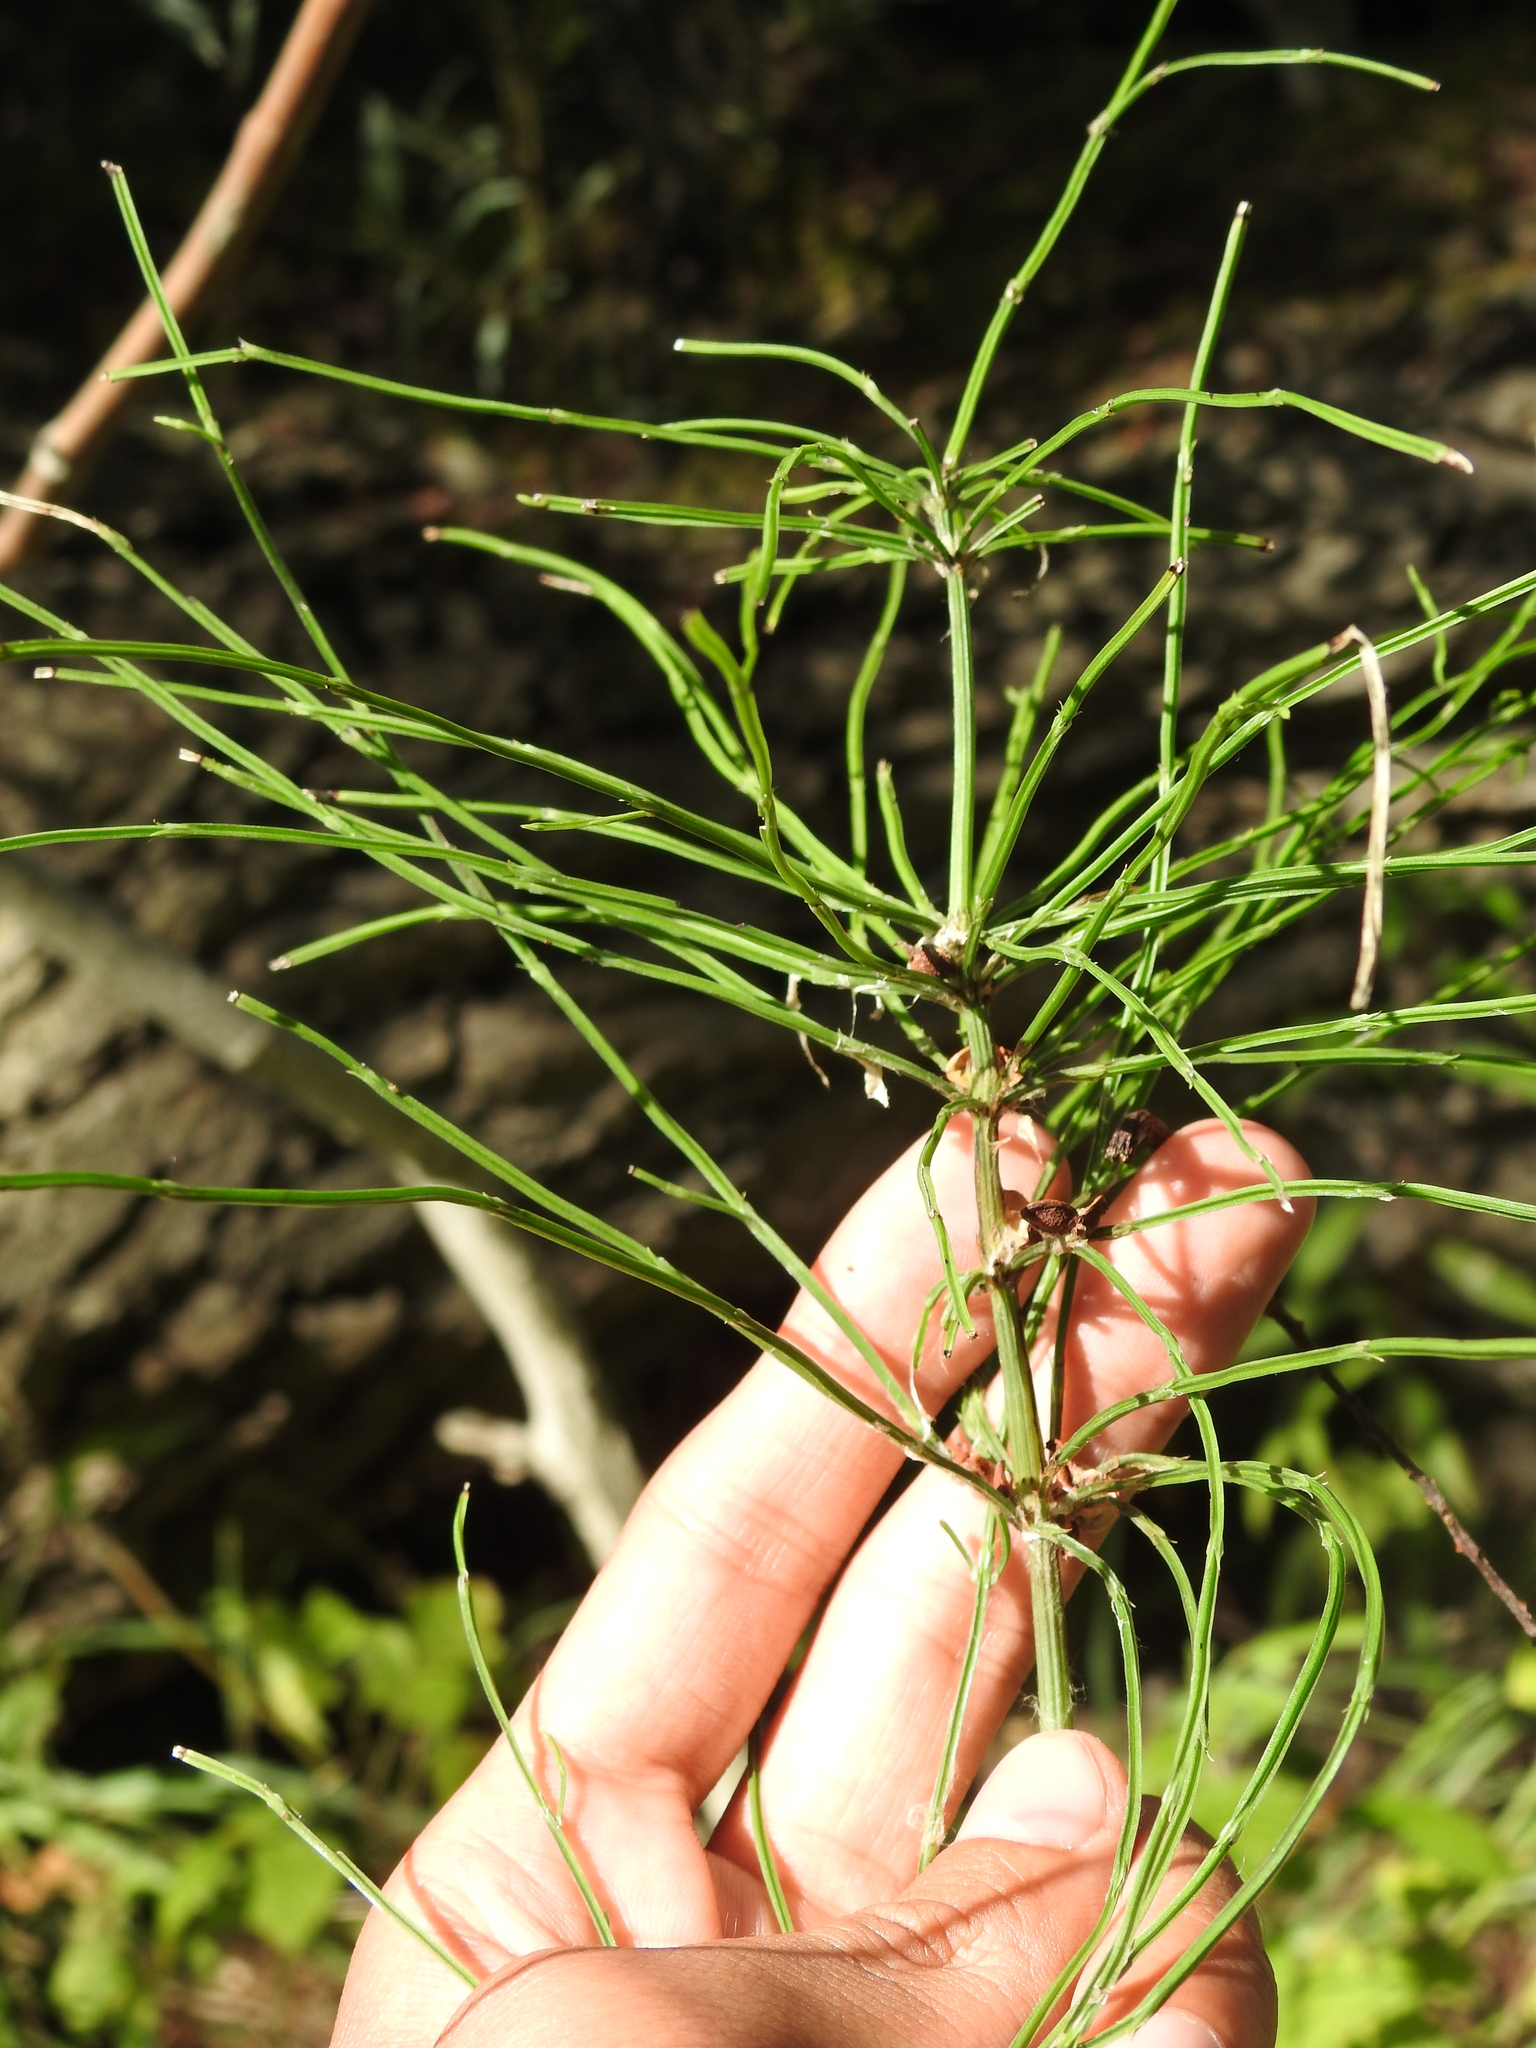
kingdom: Plantae
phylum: Tracheophyta
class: Polypodiopsida
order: Equisetales
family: Equisetaceae
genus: Equisetum
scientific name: Equisetum arvense
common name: Field horsetail
